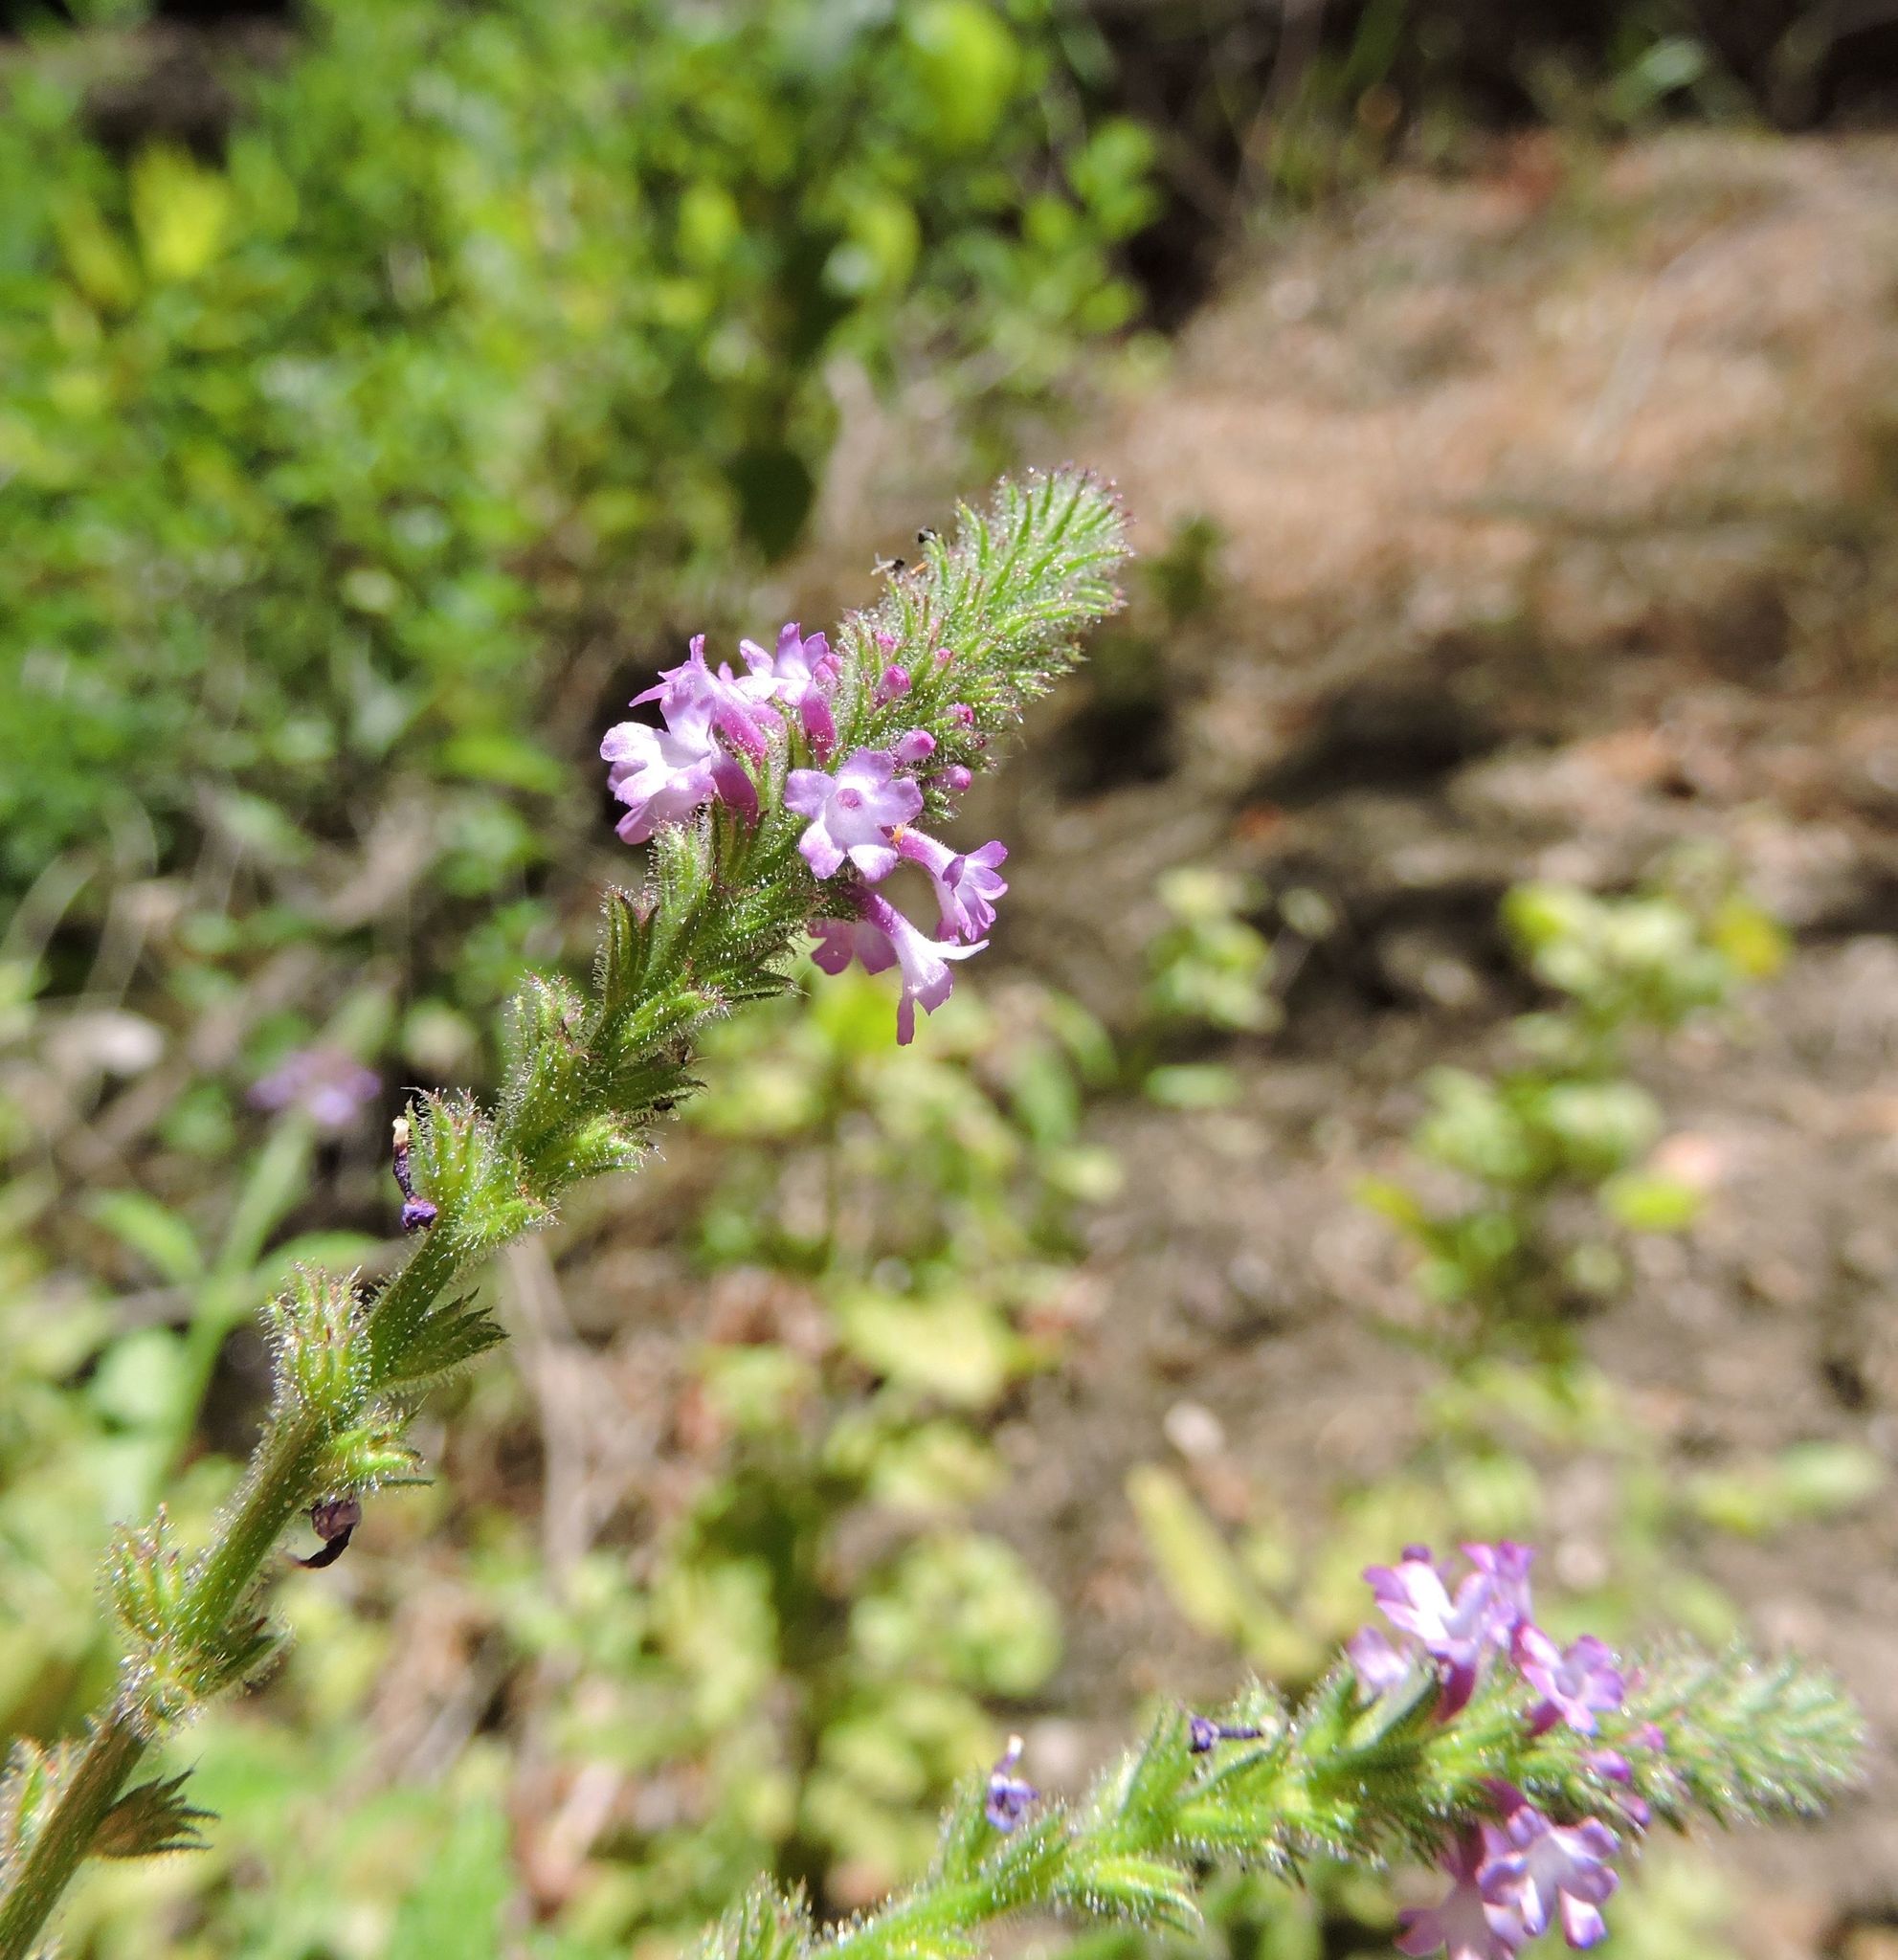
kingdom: Plantae
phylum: Tracheophyta
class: Magnoliopsida
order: Lamiales
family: Verbenaceae
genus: Verbena
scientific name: Verbena lasiostachys
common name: Vervain
